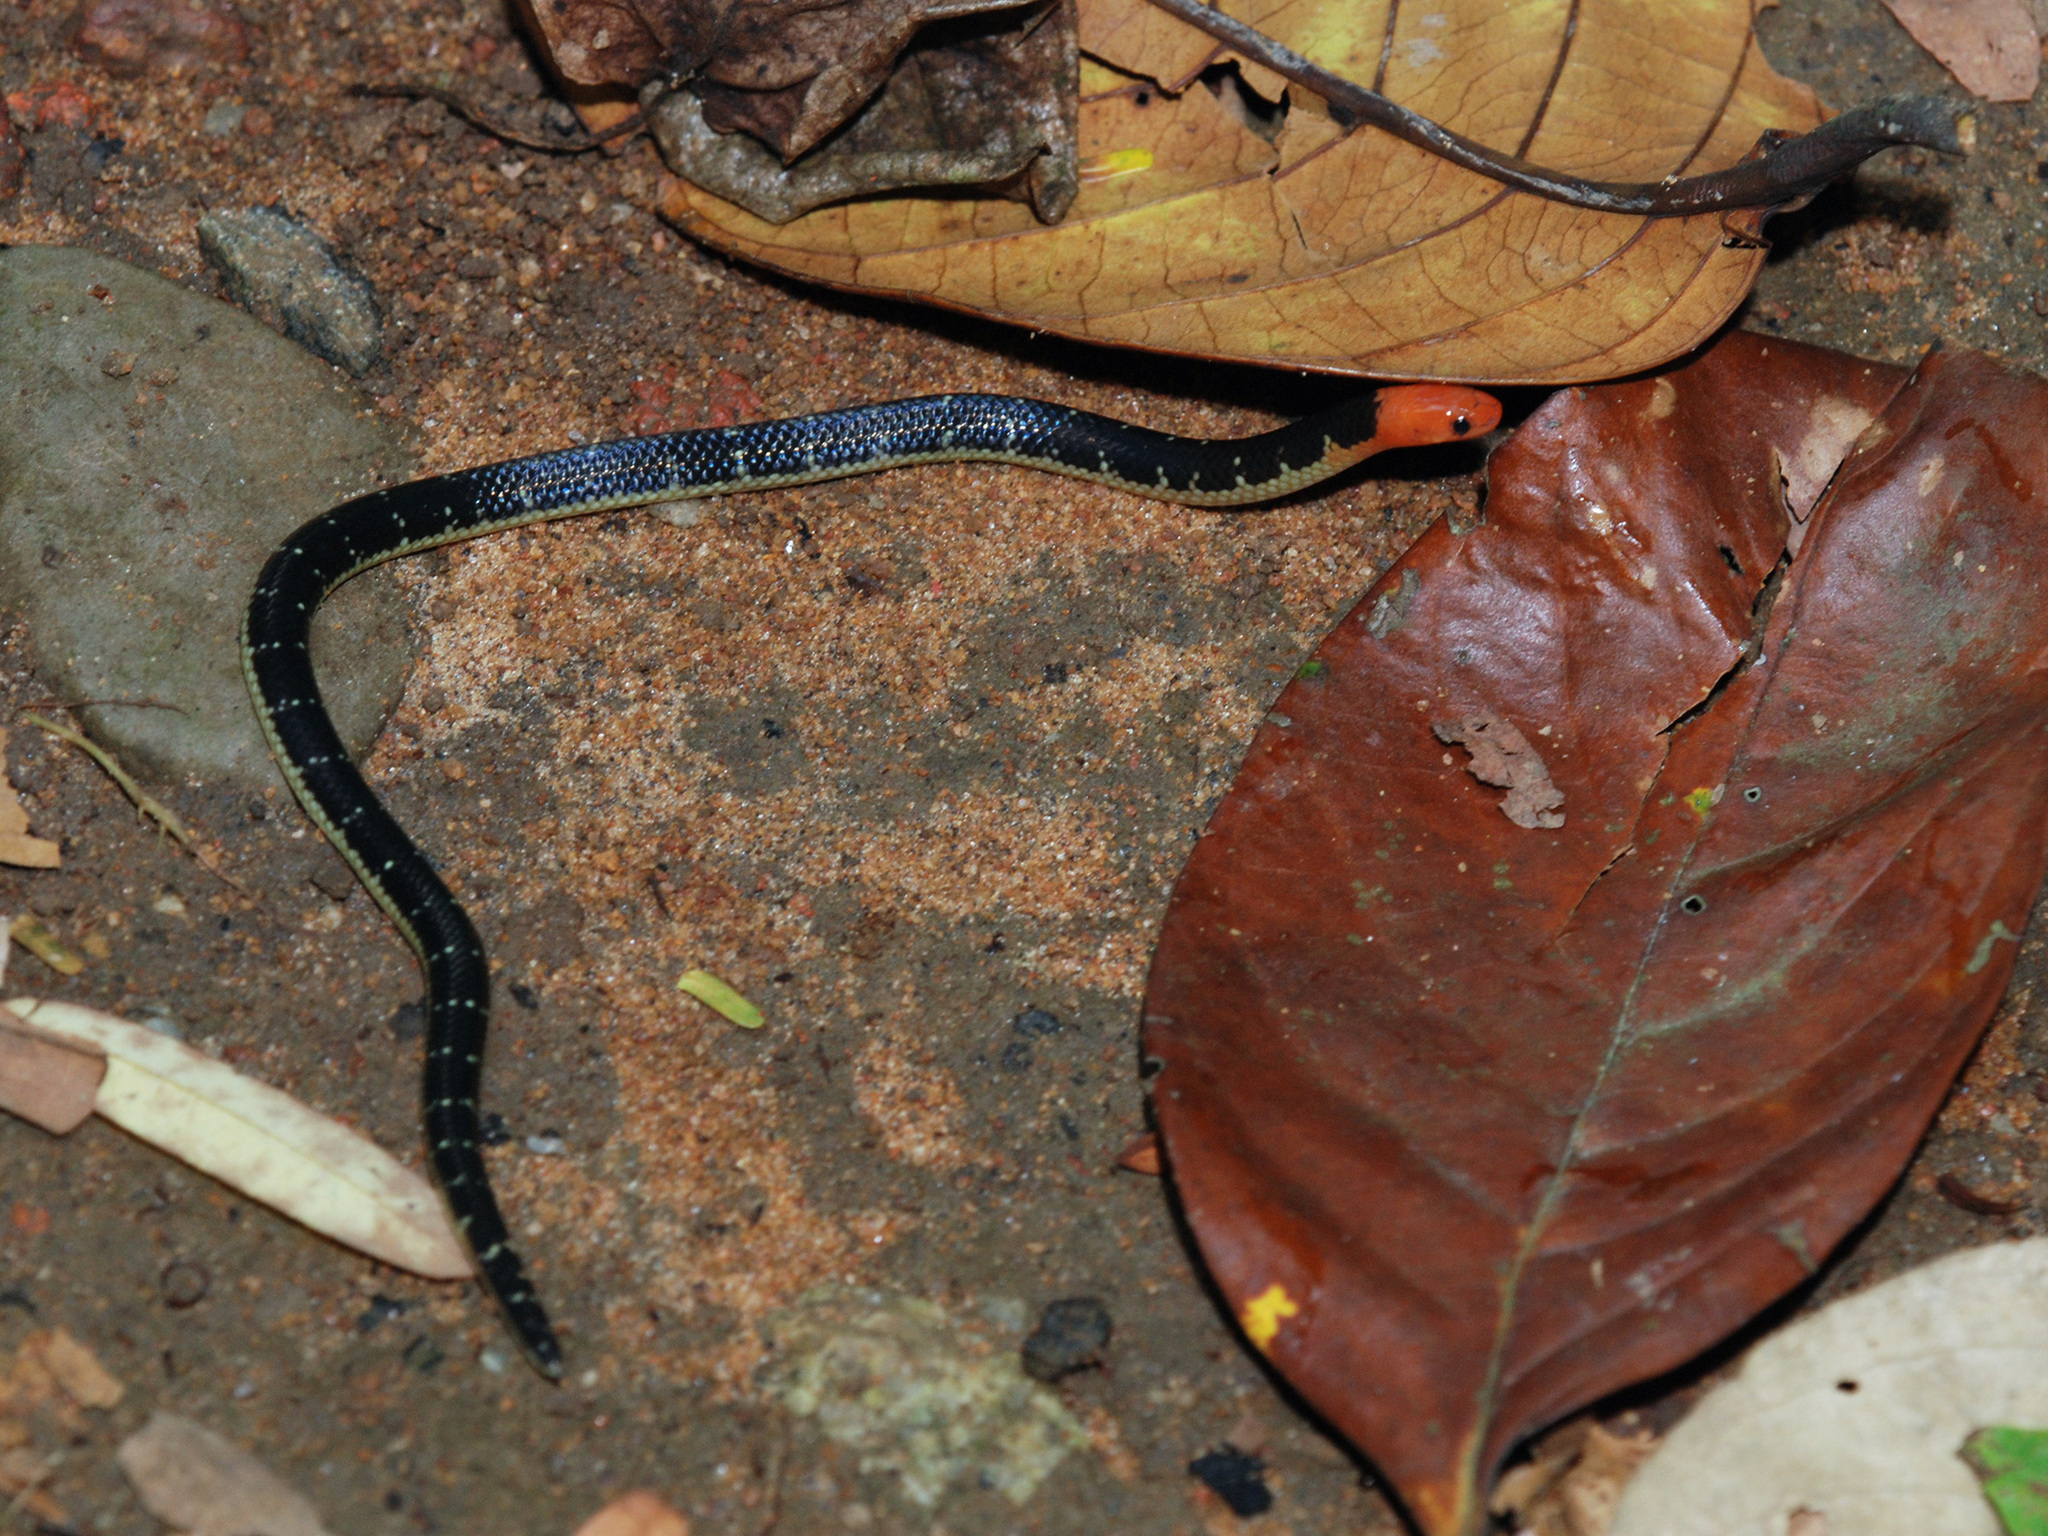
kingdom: Animalia
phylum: Chordata
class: Squamata
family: Colubridae
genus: Calamaria
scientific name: Calamaria lumbricoidea
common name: Variable reed snake
